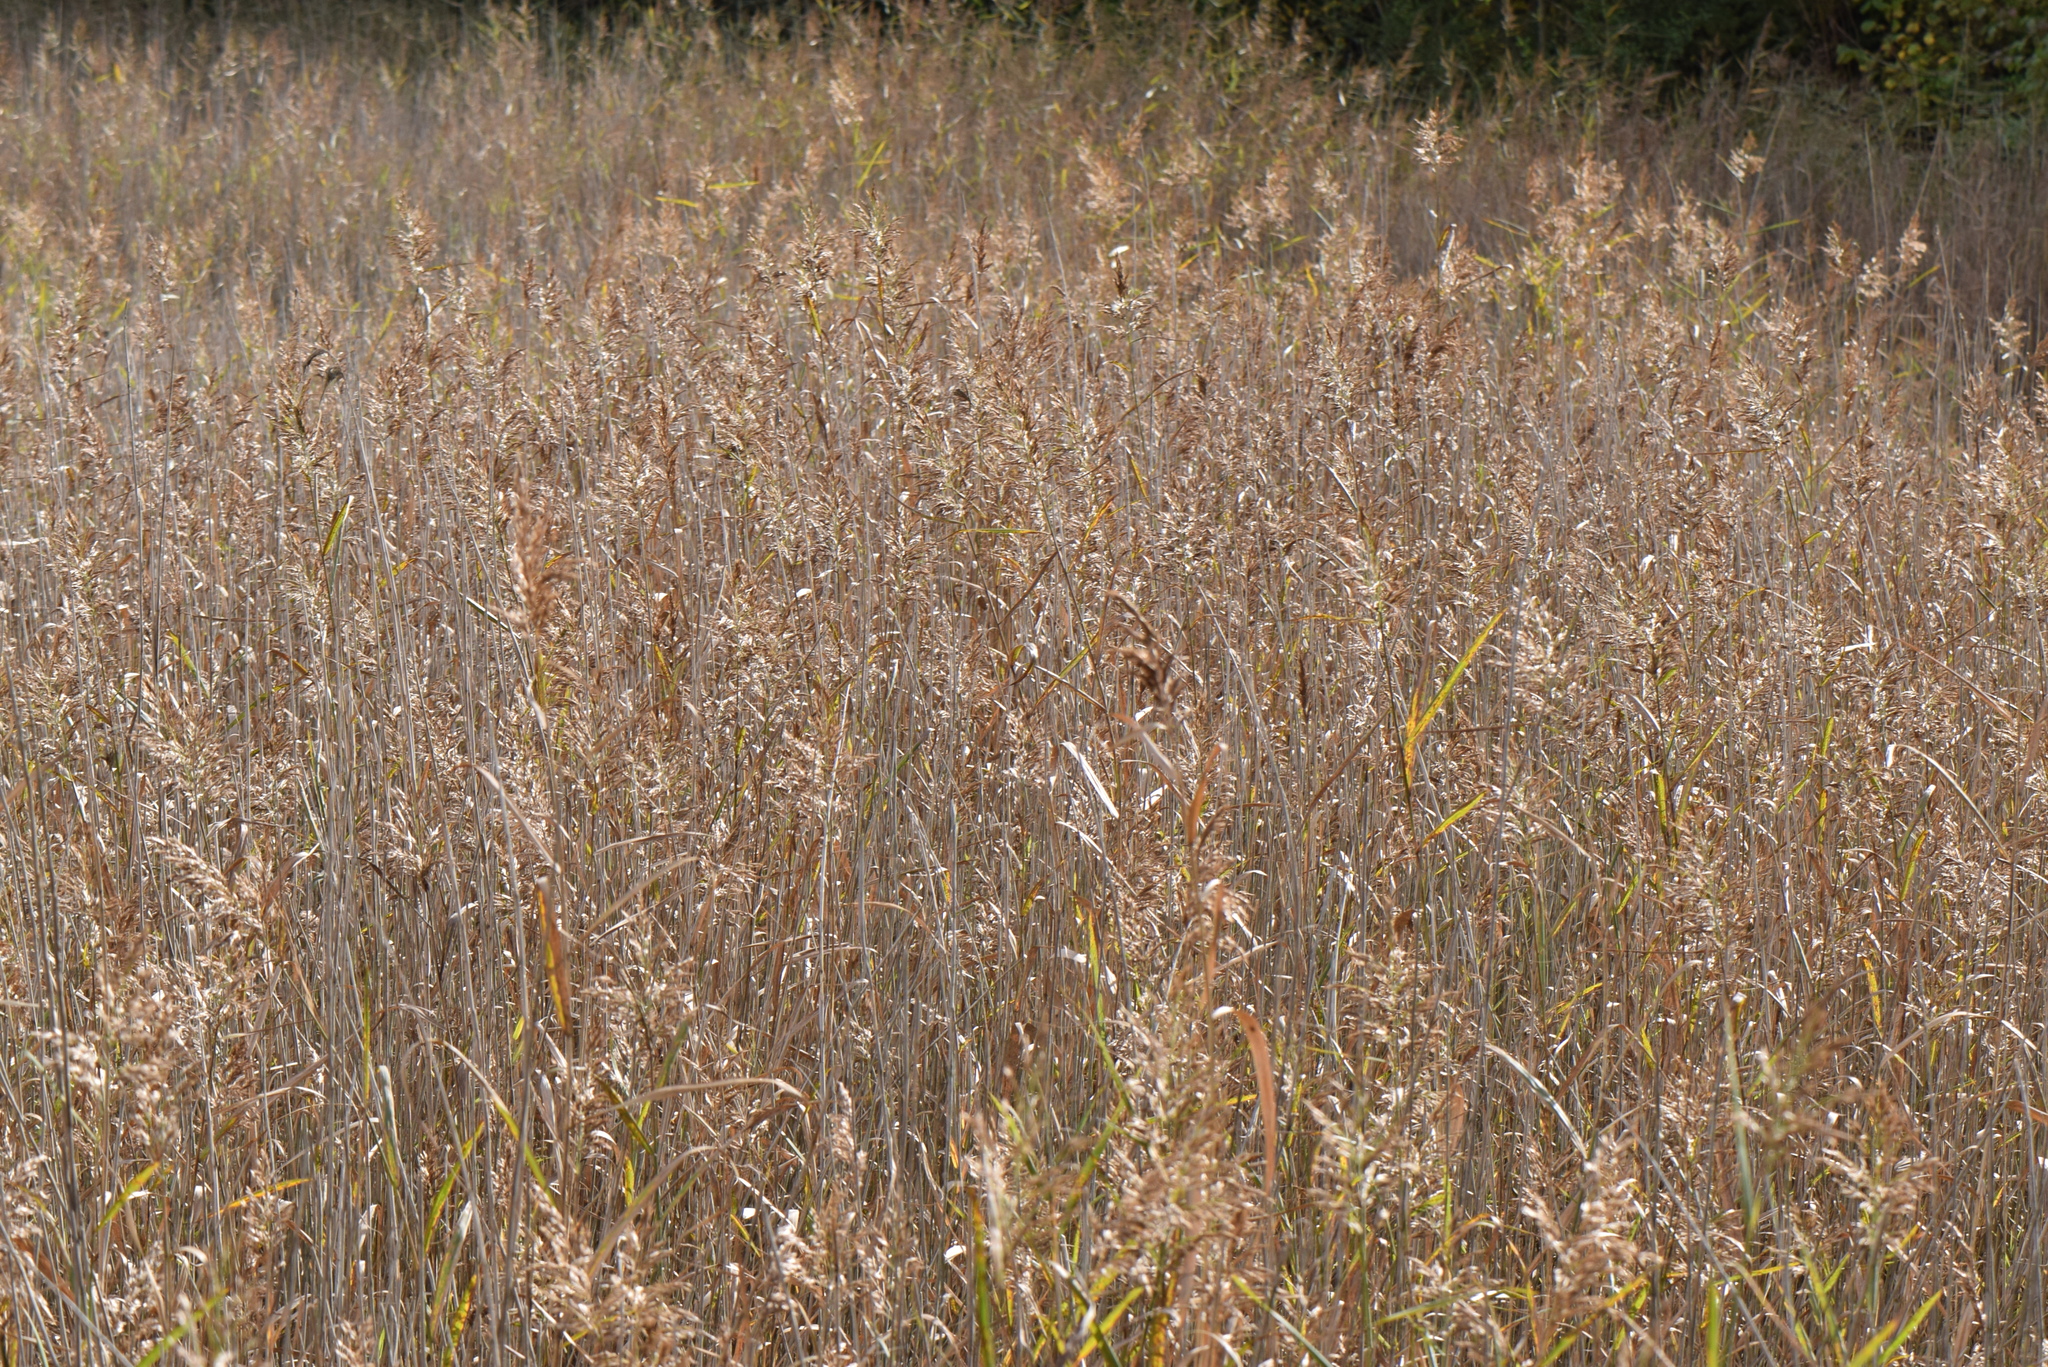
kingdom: Plantae
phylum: Tracheophyta
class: Liliopsida
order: Poales
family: Poaceae
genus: Phragmites
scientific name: Phragmites australis
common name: Common reed
